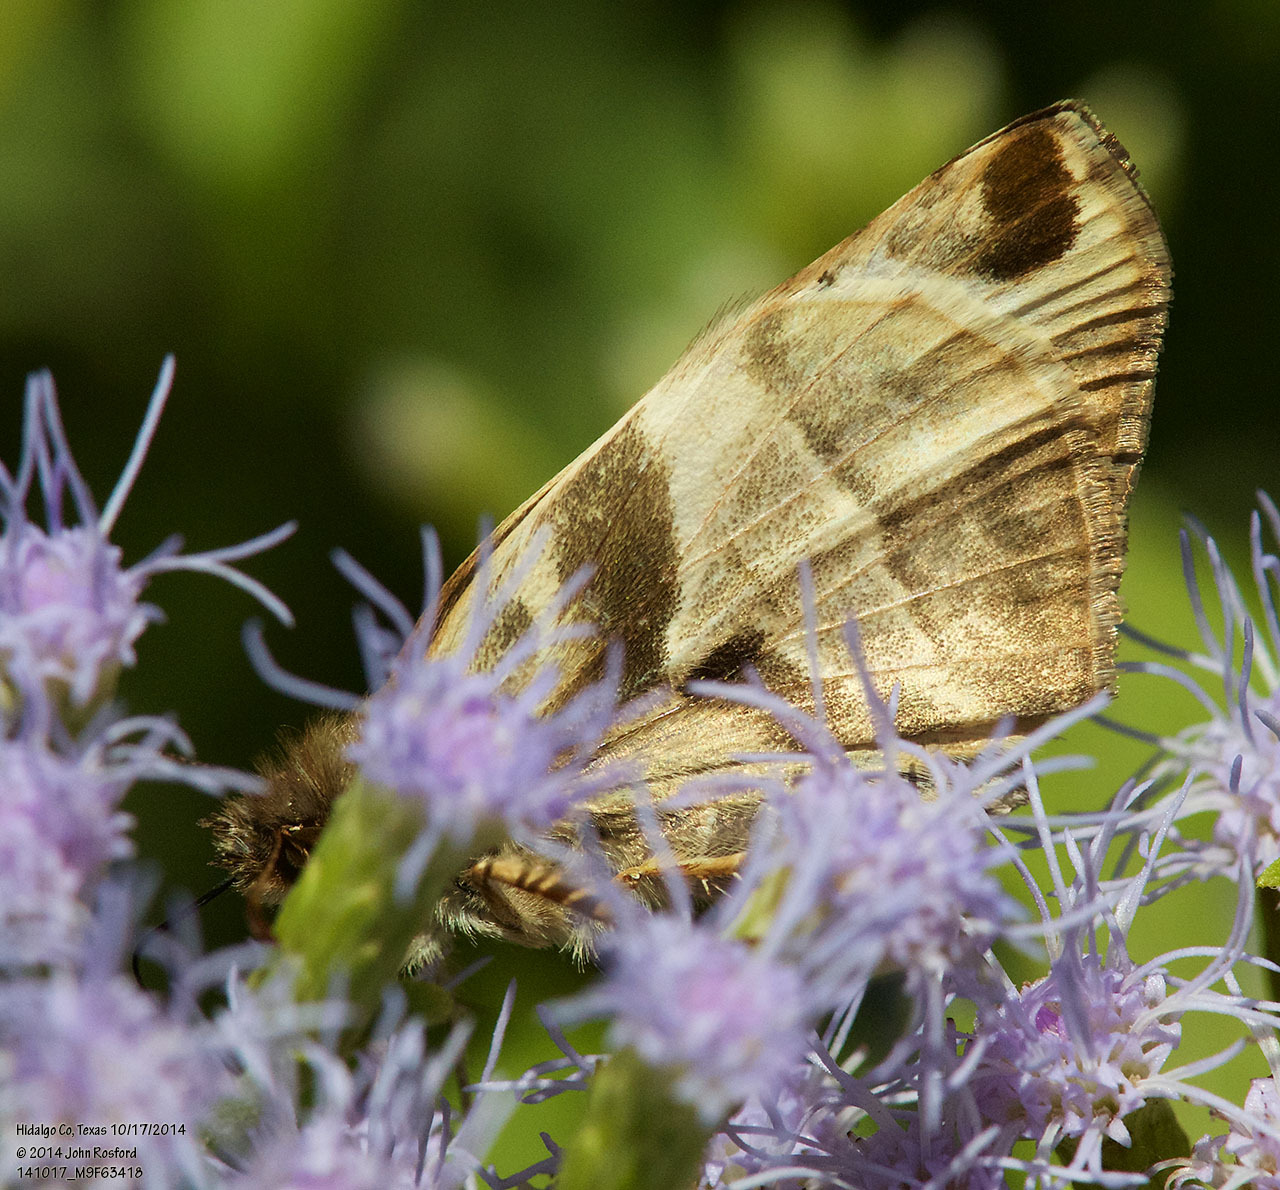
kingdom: Animalia
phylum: Arthropoda
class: Insecta
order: Lepidoptera
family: Hesperiidae
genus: Heliopetes
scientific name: Heliopetes laviana
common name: Laviana white-skipper
